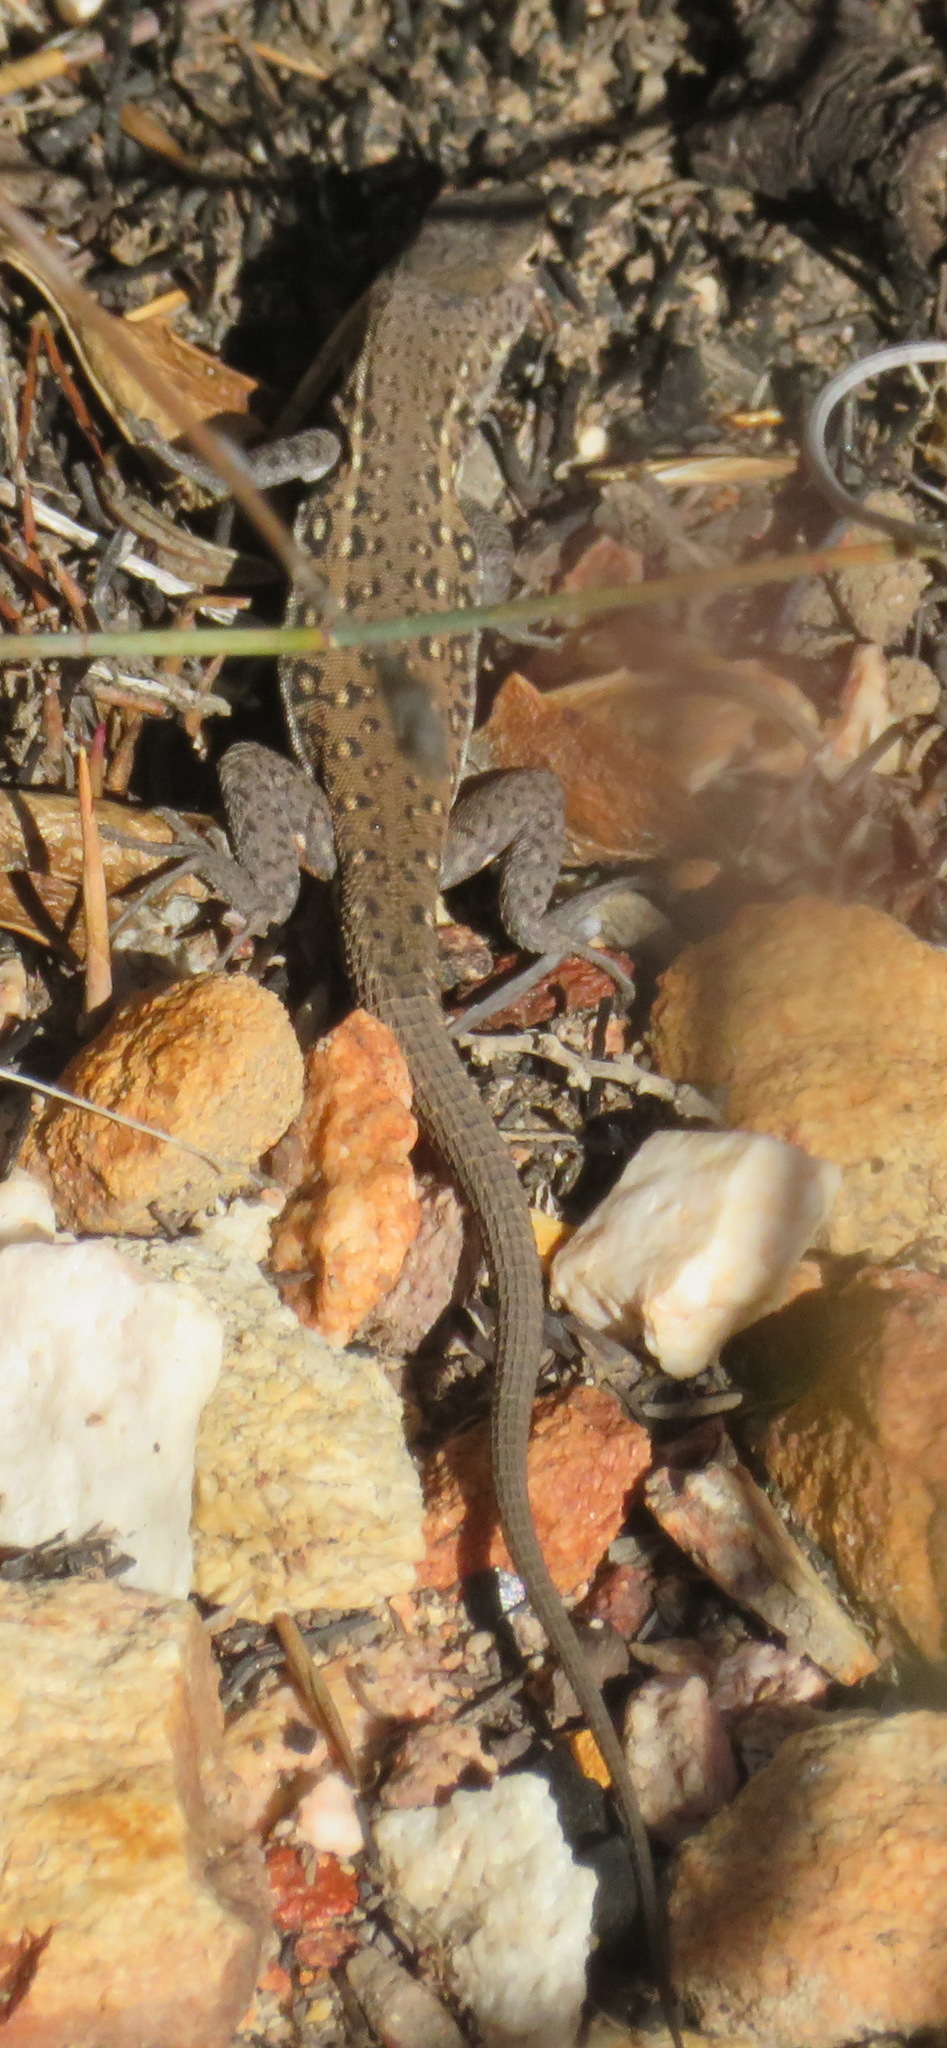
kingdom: Animalia
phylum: Chordata
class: Squamata
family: Lacertidae
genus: Pedioplanis
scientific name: Pedioplanis lineoocellata
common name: Spotted sand lizard
